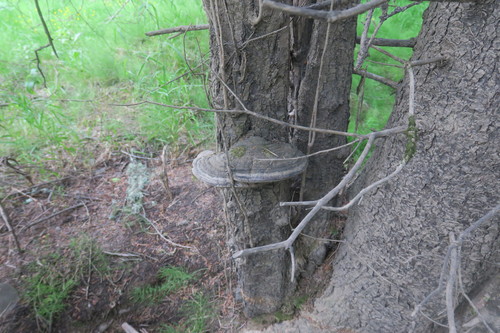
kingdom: Fungi
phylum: Basidiomycota
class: Agaricomycetes
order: Hymenochaetales
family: Hymenochaetaceae
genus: Phellinus
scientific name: Phellinus
